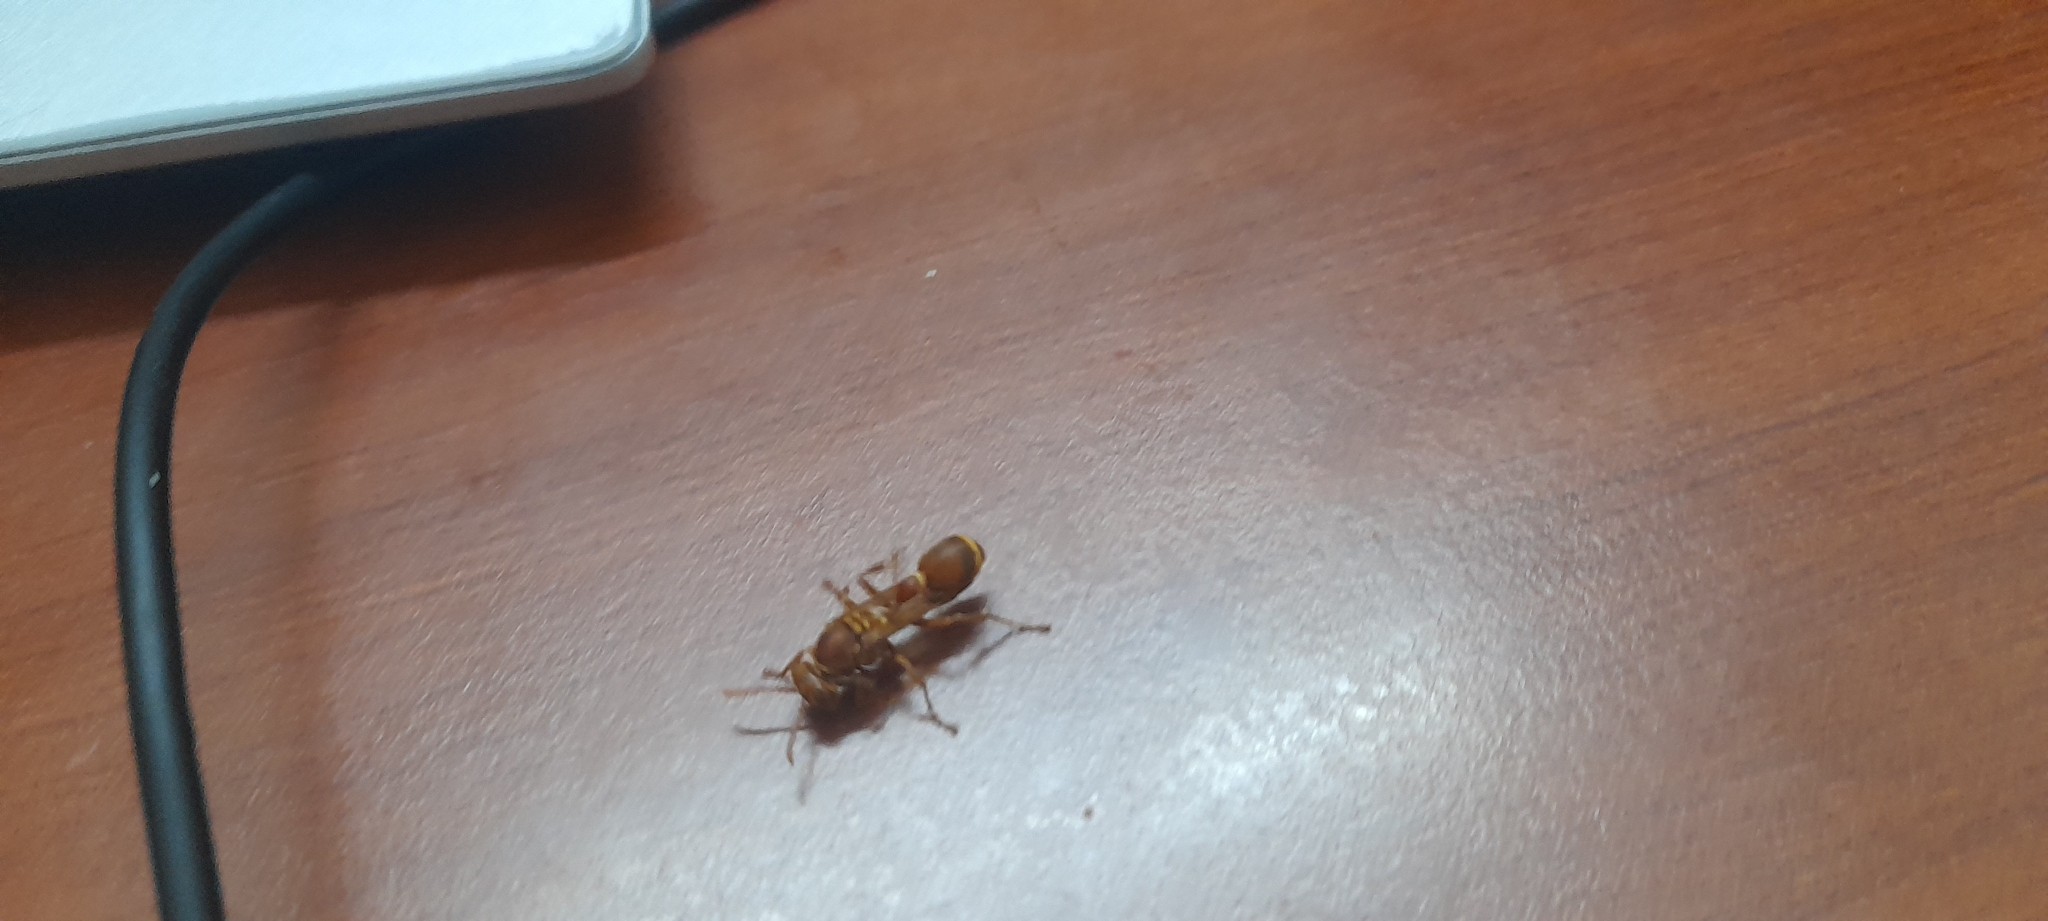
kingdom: Animalia
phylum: Arthropoda
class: Insecta
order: Hymenoptera
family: Vespidae
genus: Ropalidia
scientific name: Ropalidia marginata
